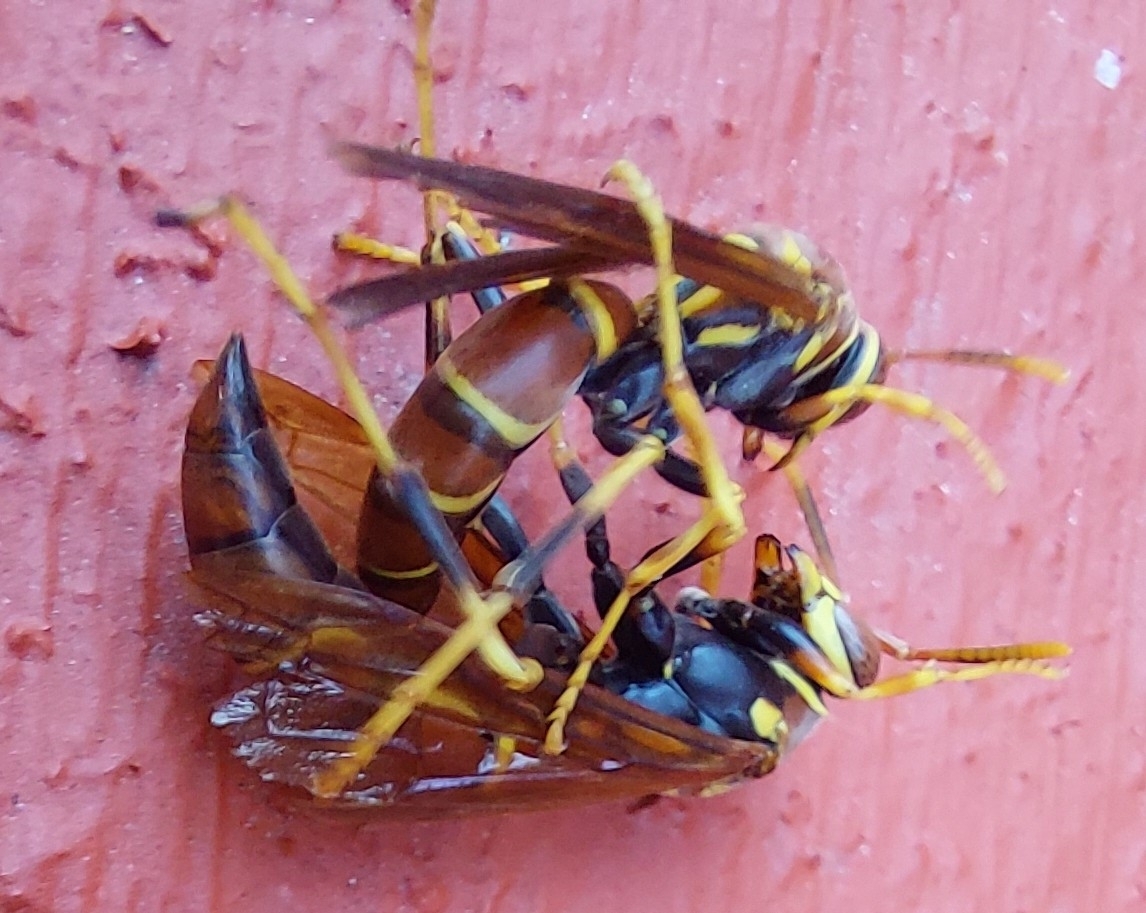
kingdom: Animalia
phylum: Arthropoda
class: Insecta
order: Hymenoptera
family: Eumenidae
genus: Polistes
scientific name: Polistes instabilis
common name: Unstable paper wasp
